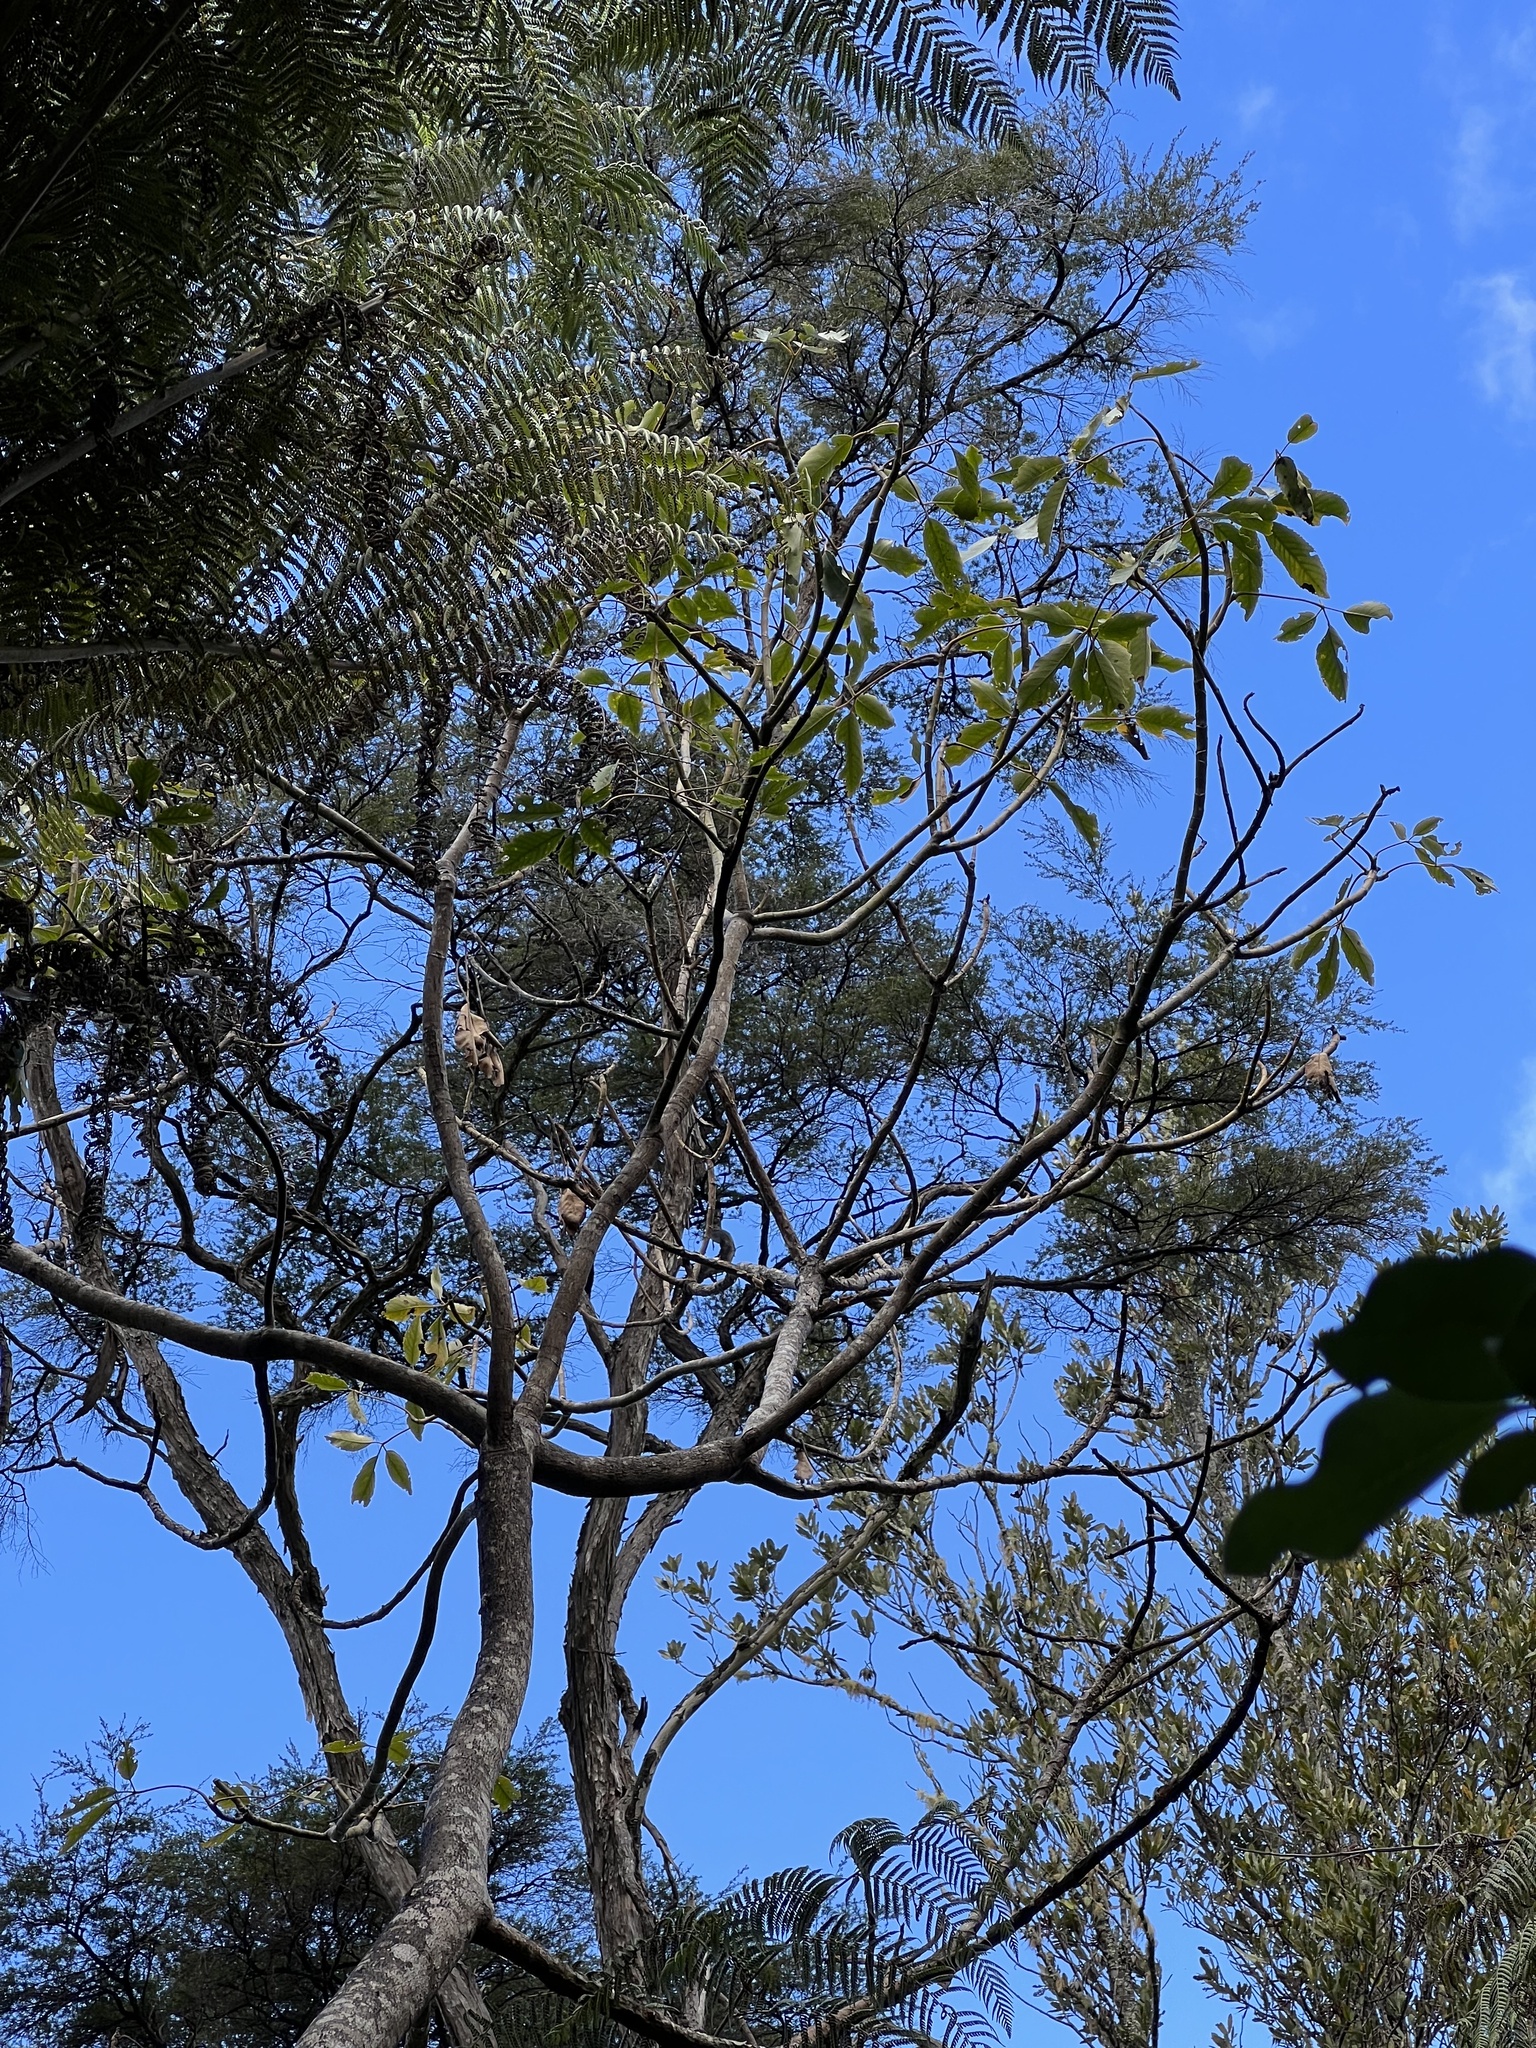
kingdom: Plantae
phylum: Tracheophyta
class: Magnoliopsida
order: Apiales
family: Araliaceae
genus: Neopanax
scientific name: Neopanax arboreus
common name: Five-fingers
